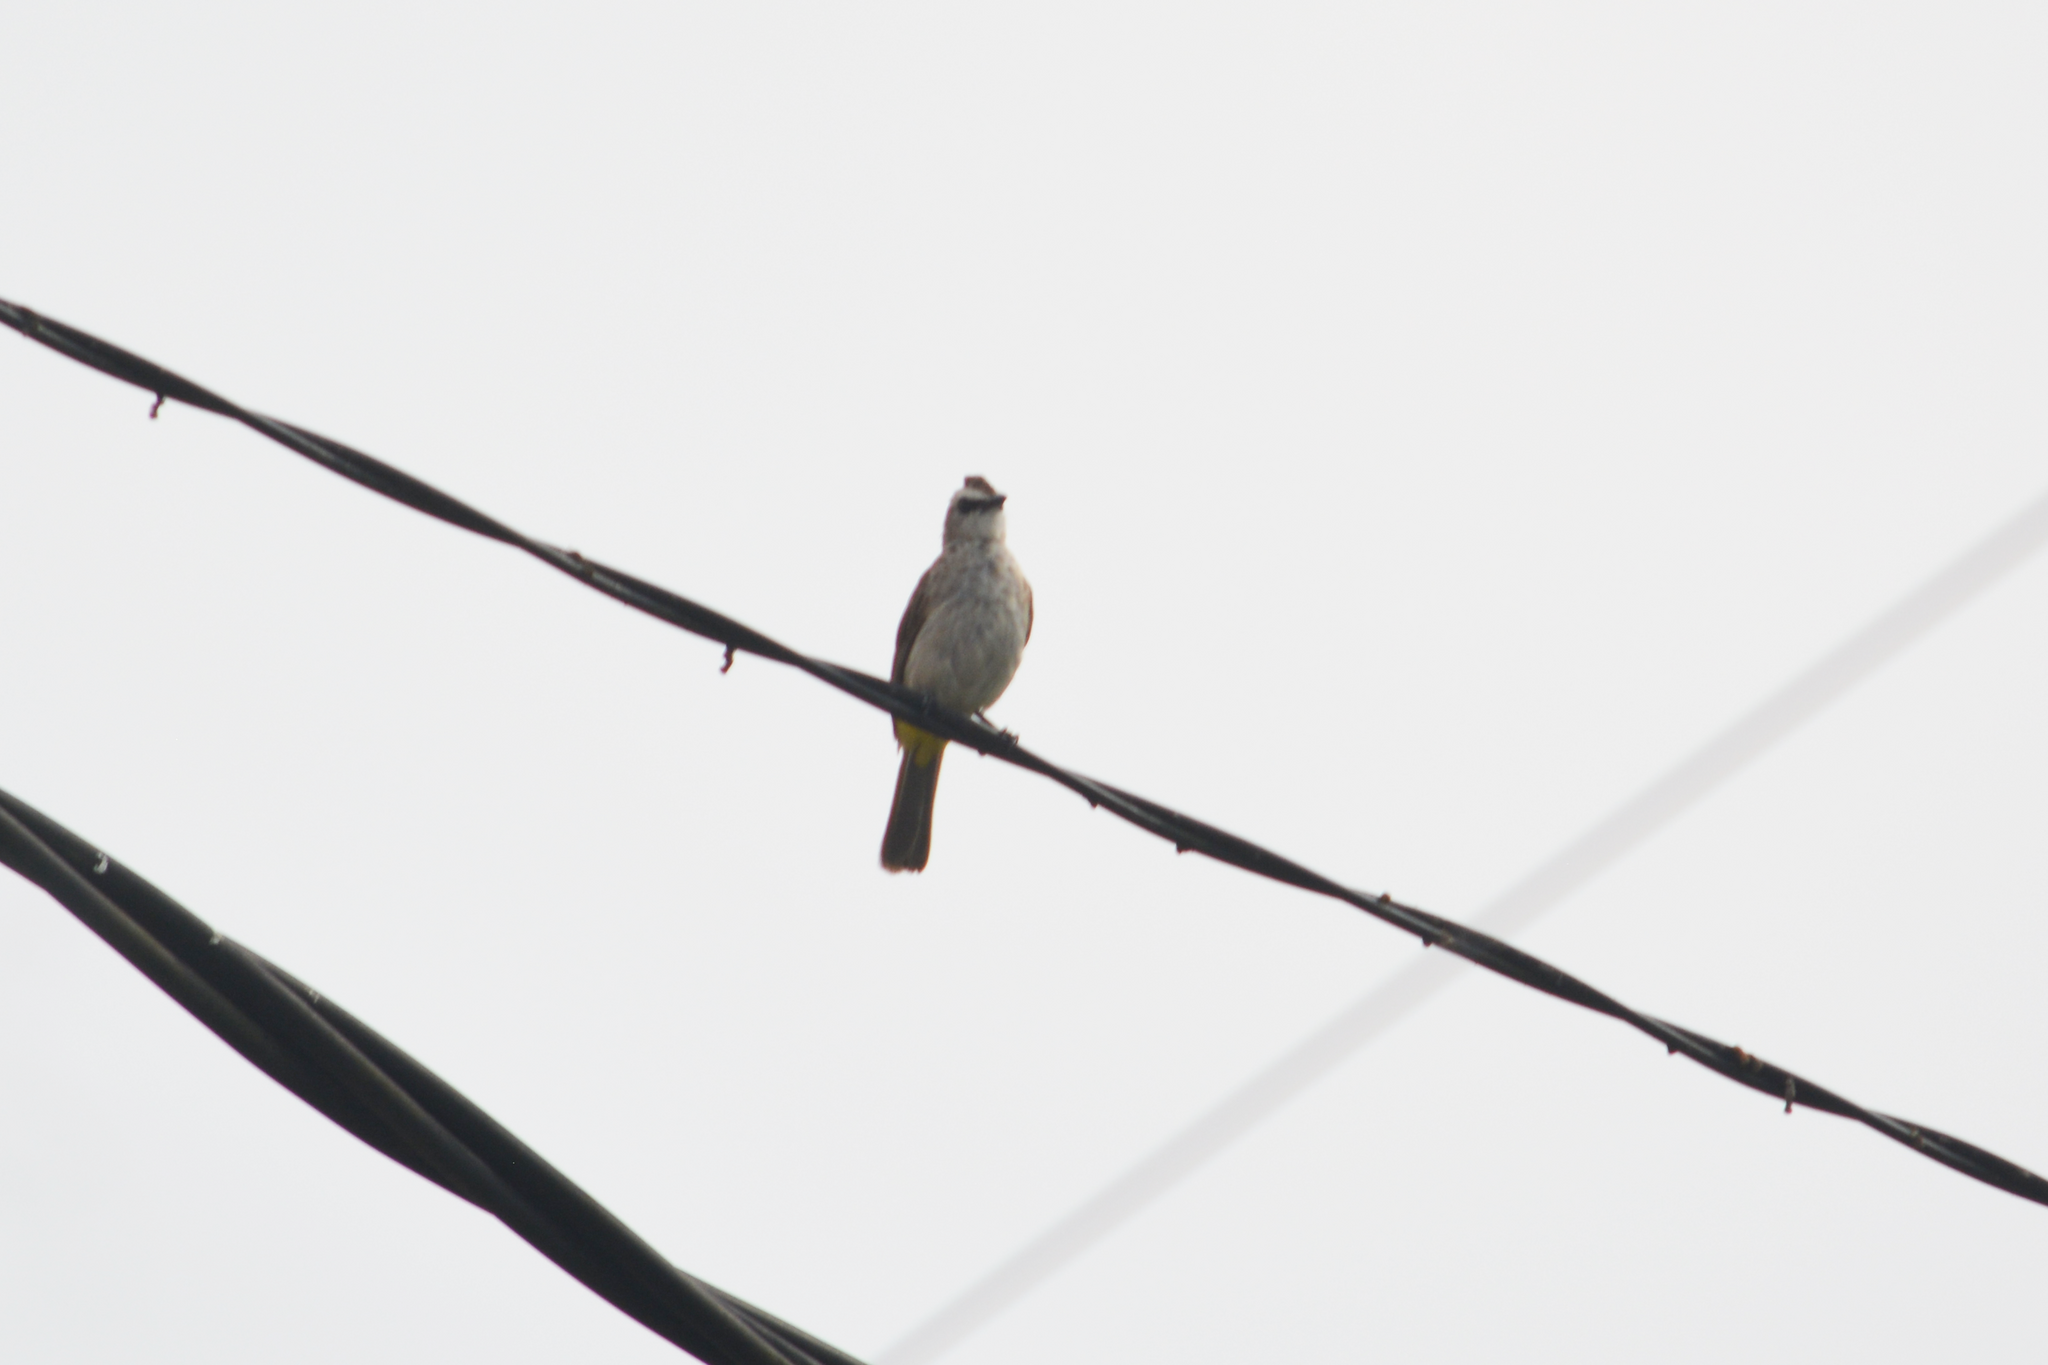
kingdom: Animalia
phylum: Chordata
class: Aves
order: Passeriformes
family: Pycnonotidae
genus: Pycnonotus
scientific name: Pycnonotus goiavier
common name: Yellow-vented bulbul
